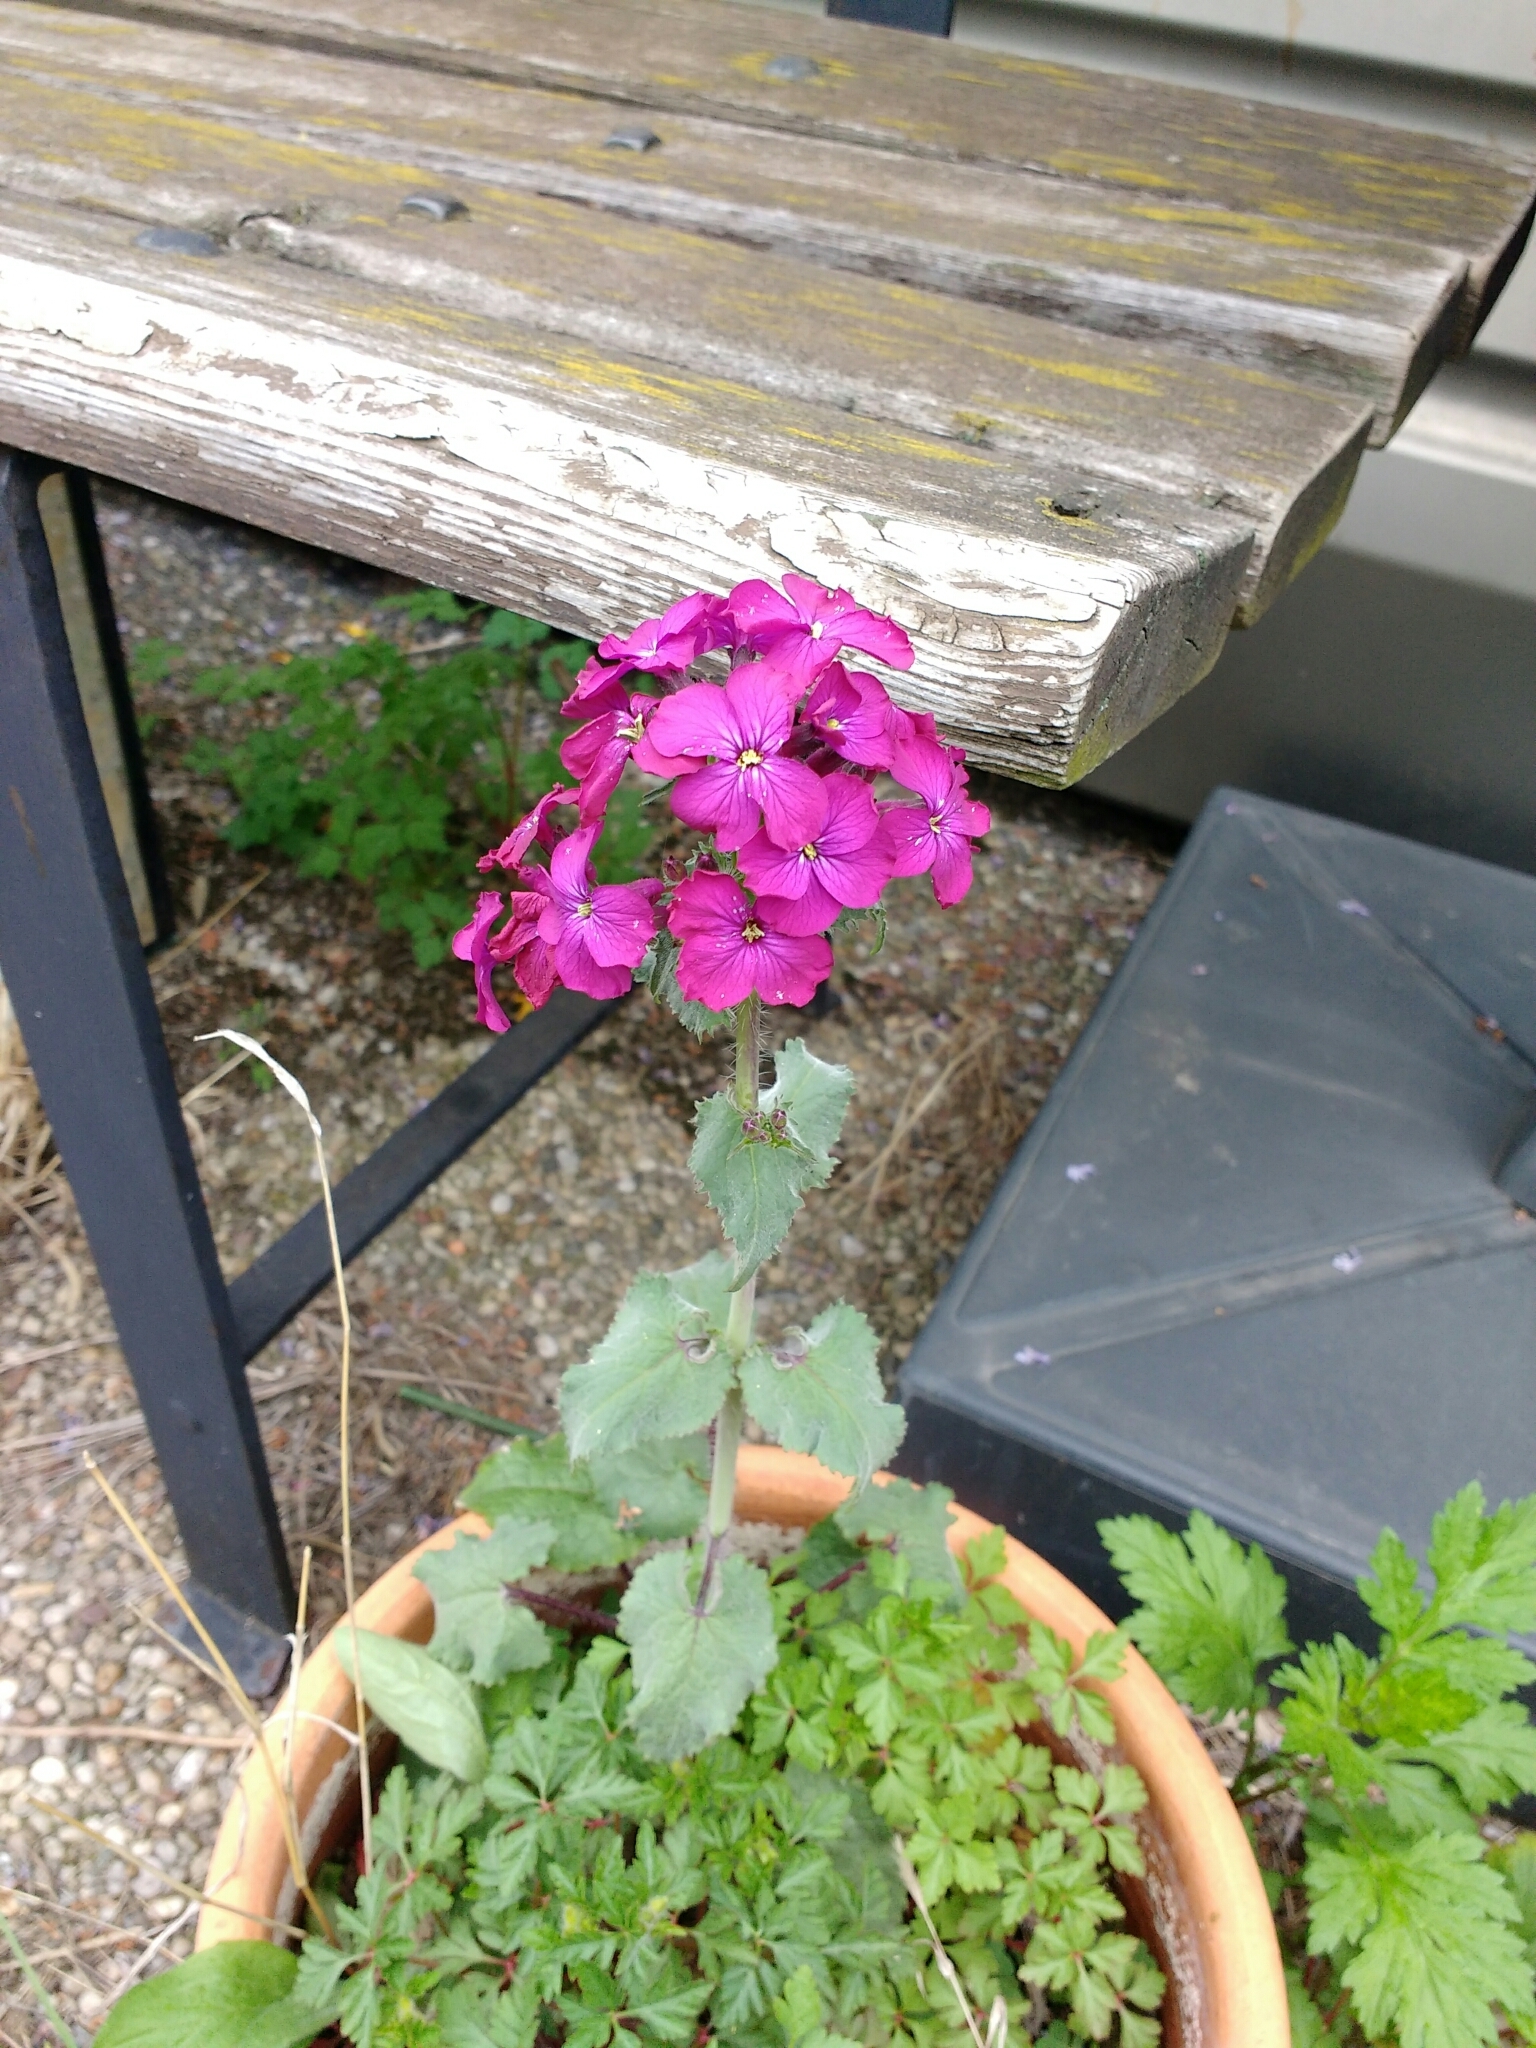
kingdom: Plantae
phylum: Tracheophyta
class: Magnoliopsida
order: Brassicales
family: Brassicaceae
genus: Lunaria
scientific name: Lunaria annua
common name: Honesty
